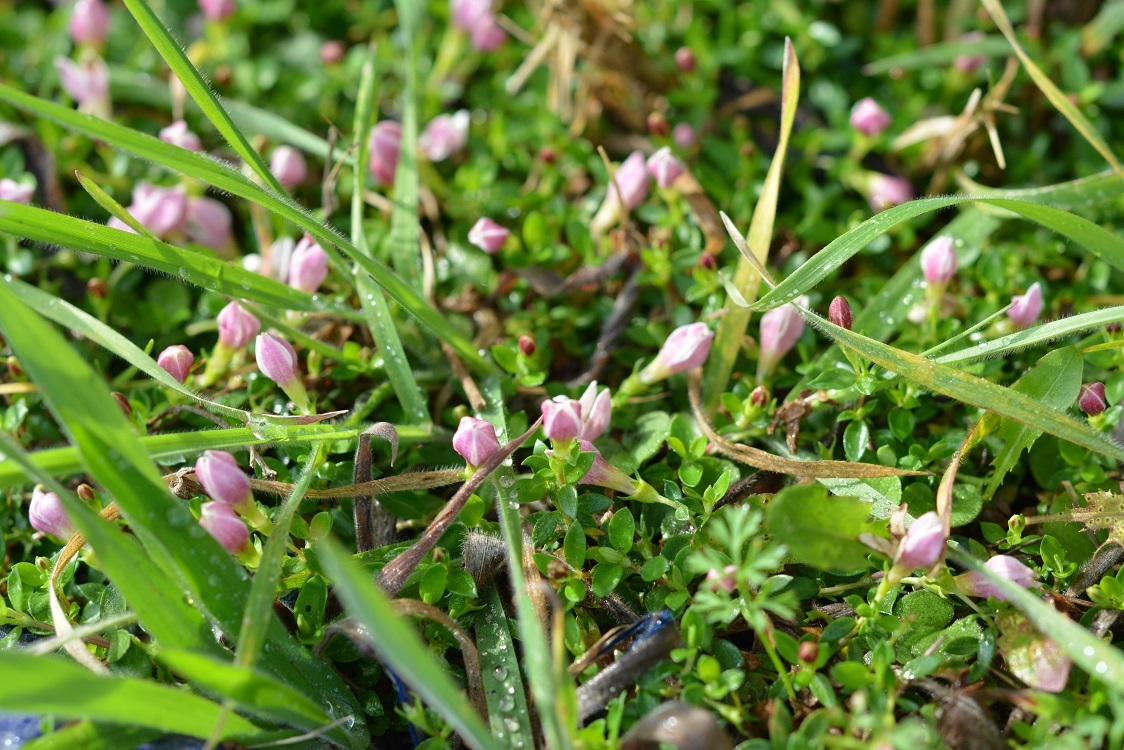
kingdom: Plantae
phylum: Tracheophyta
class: Magnoliopsida
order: Gentianales
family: Rubiaceae
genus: Arcytophyllum
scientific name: Arcytophyllum serpyllaceum
